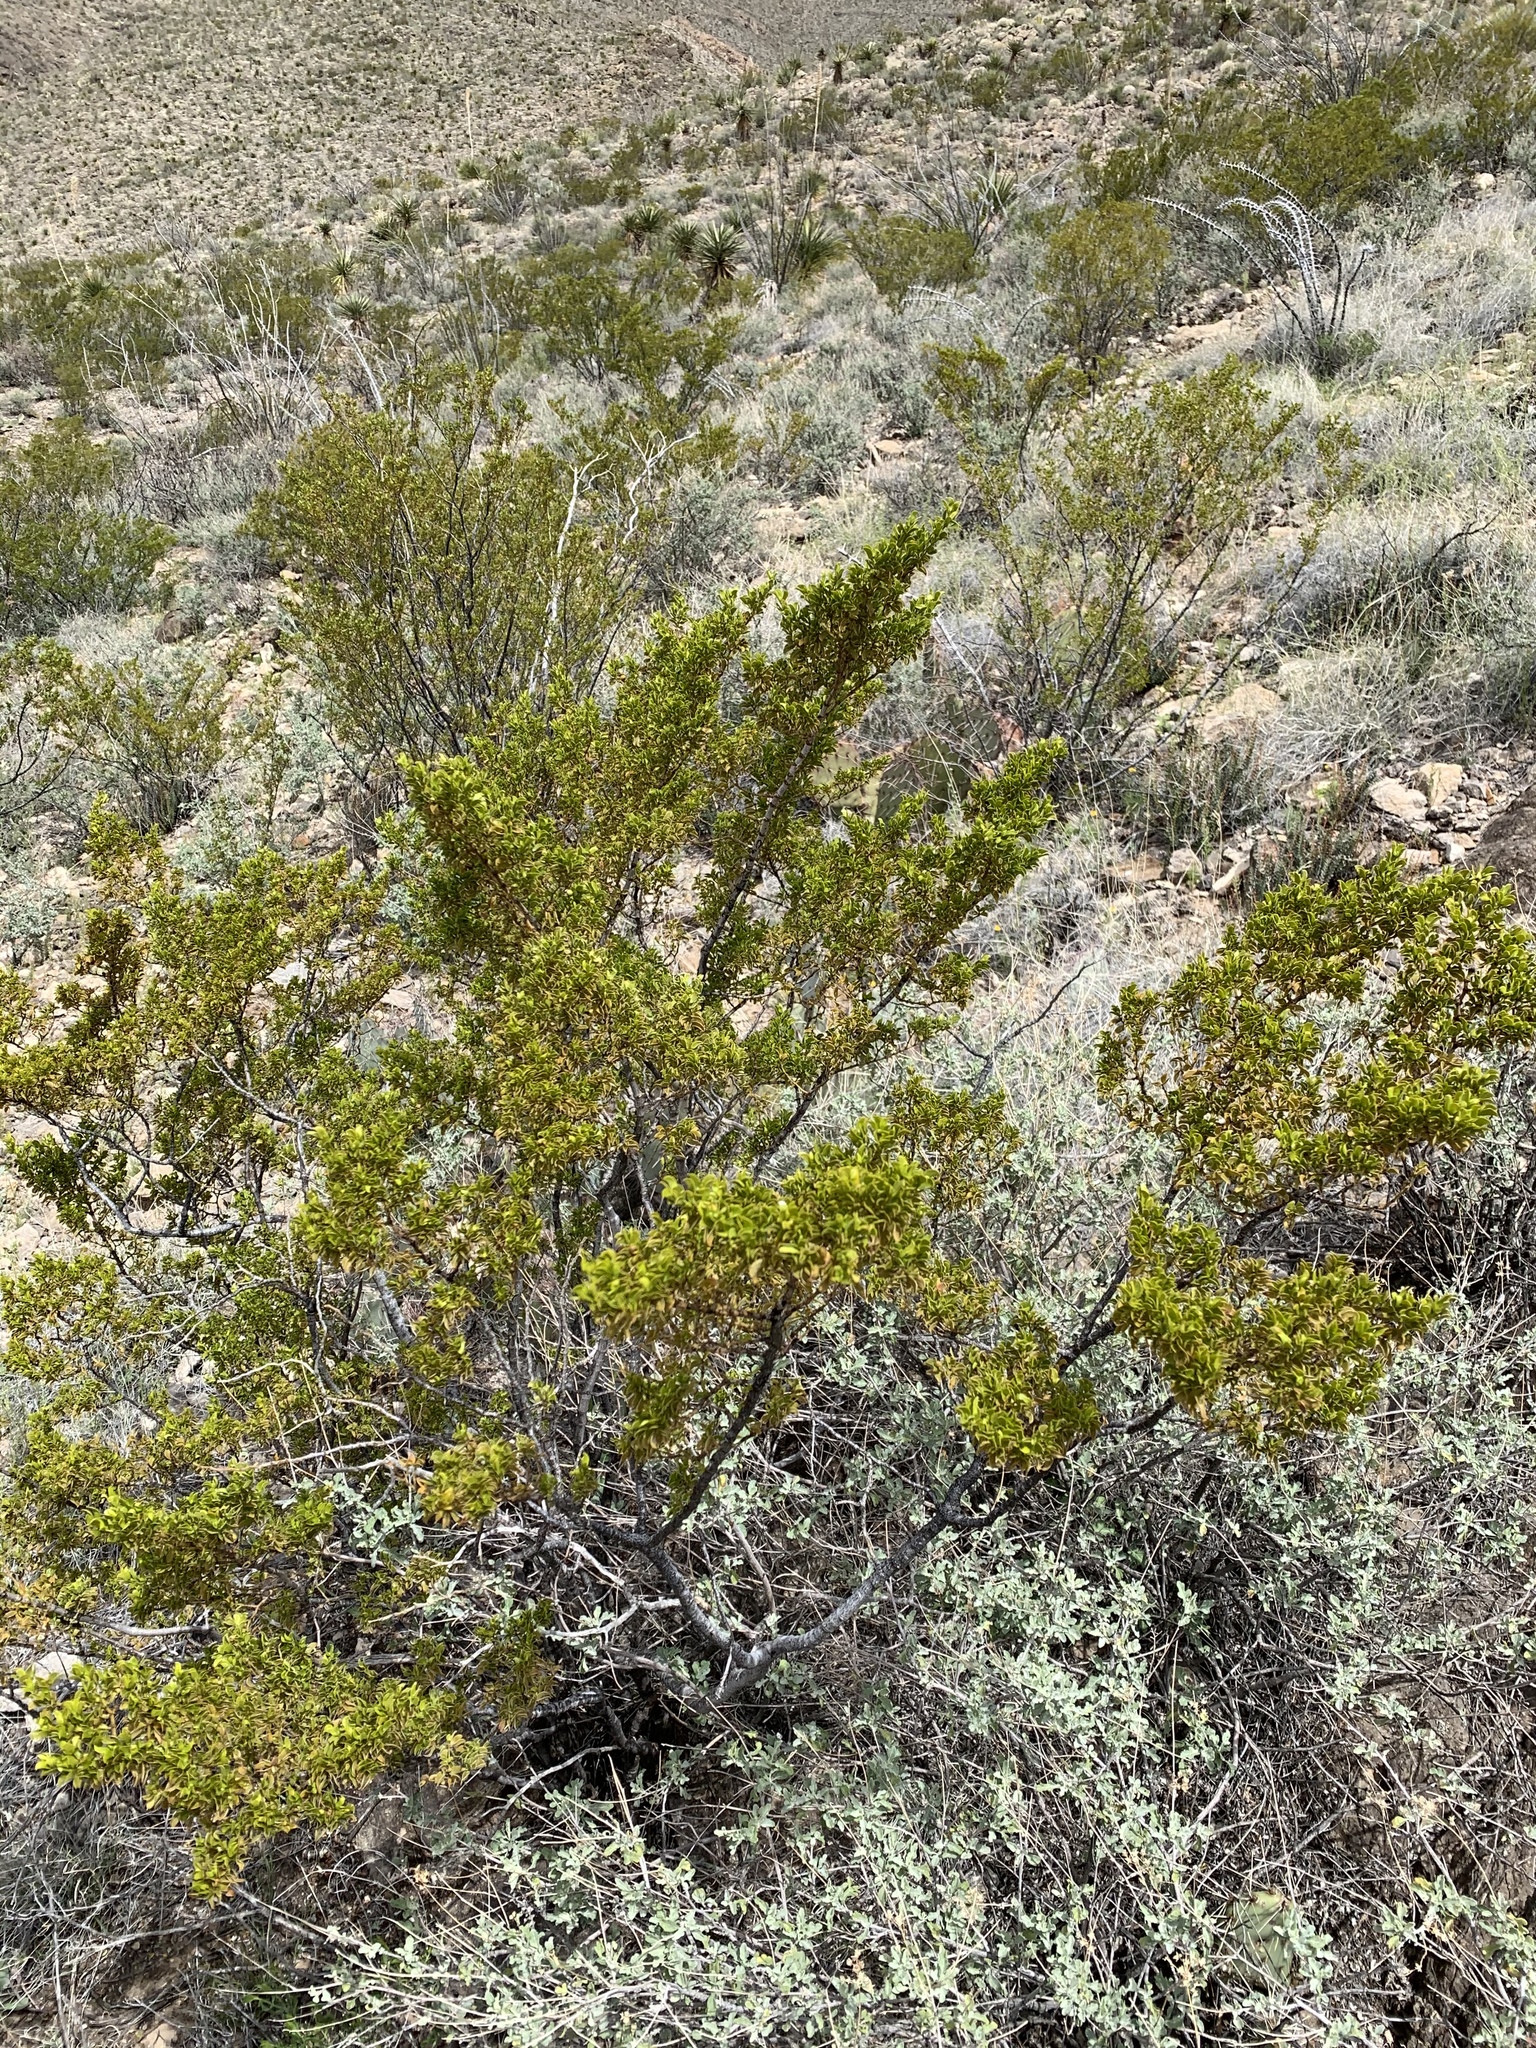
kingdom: Plantae
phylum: Tracheophyta
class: Magnoliopsida
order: Zygophyllales
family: Zygophyllaceae
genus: Larrea
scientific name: Larrea tridentata
